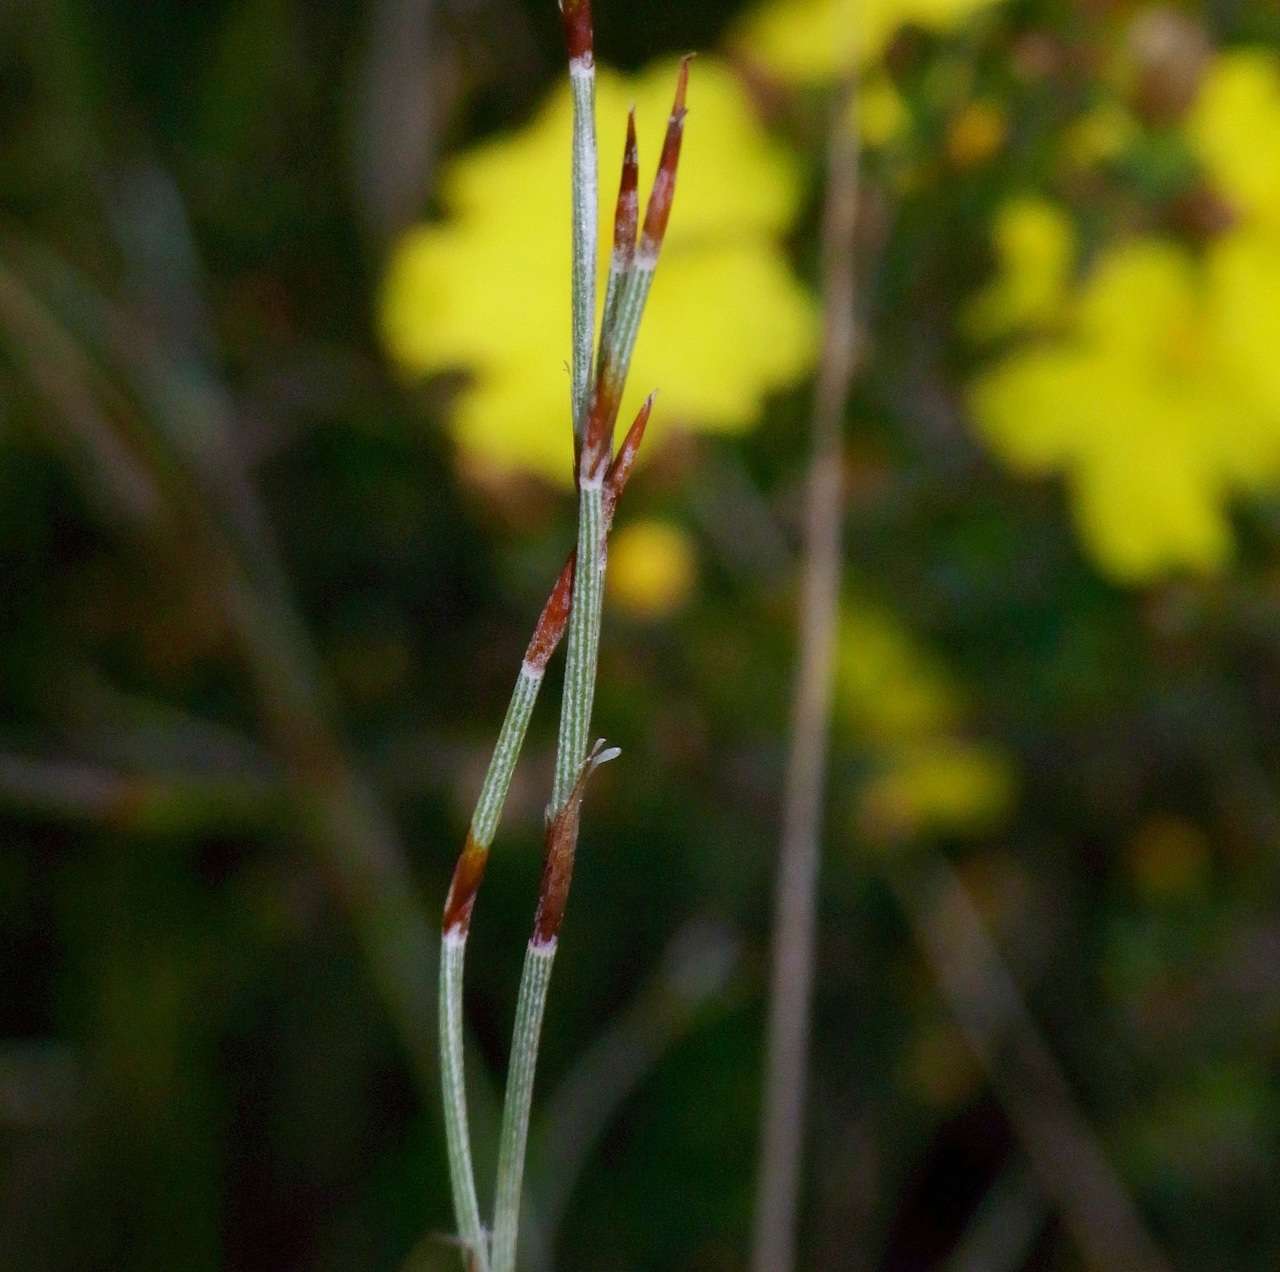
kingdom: Plantae
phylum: Tracheophyta
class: Liliopsida
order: Poales
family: Restionaceae
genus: Hypolaena
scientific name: Hypolaena fastigiata
